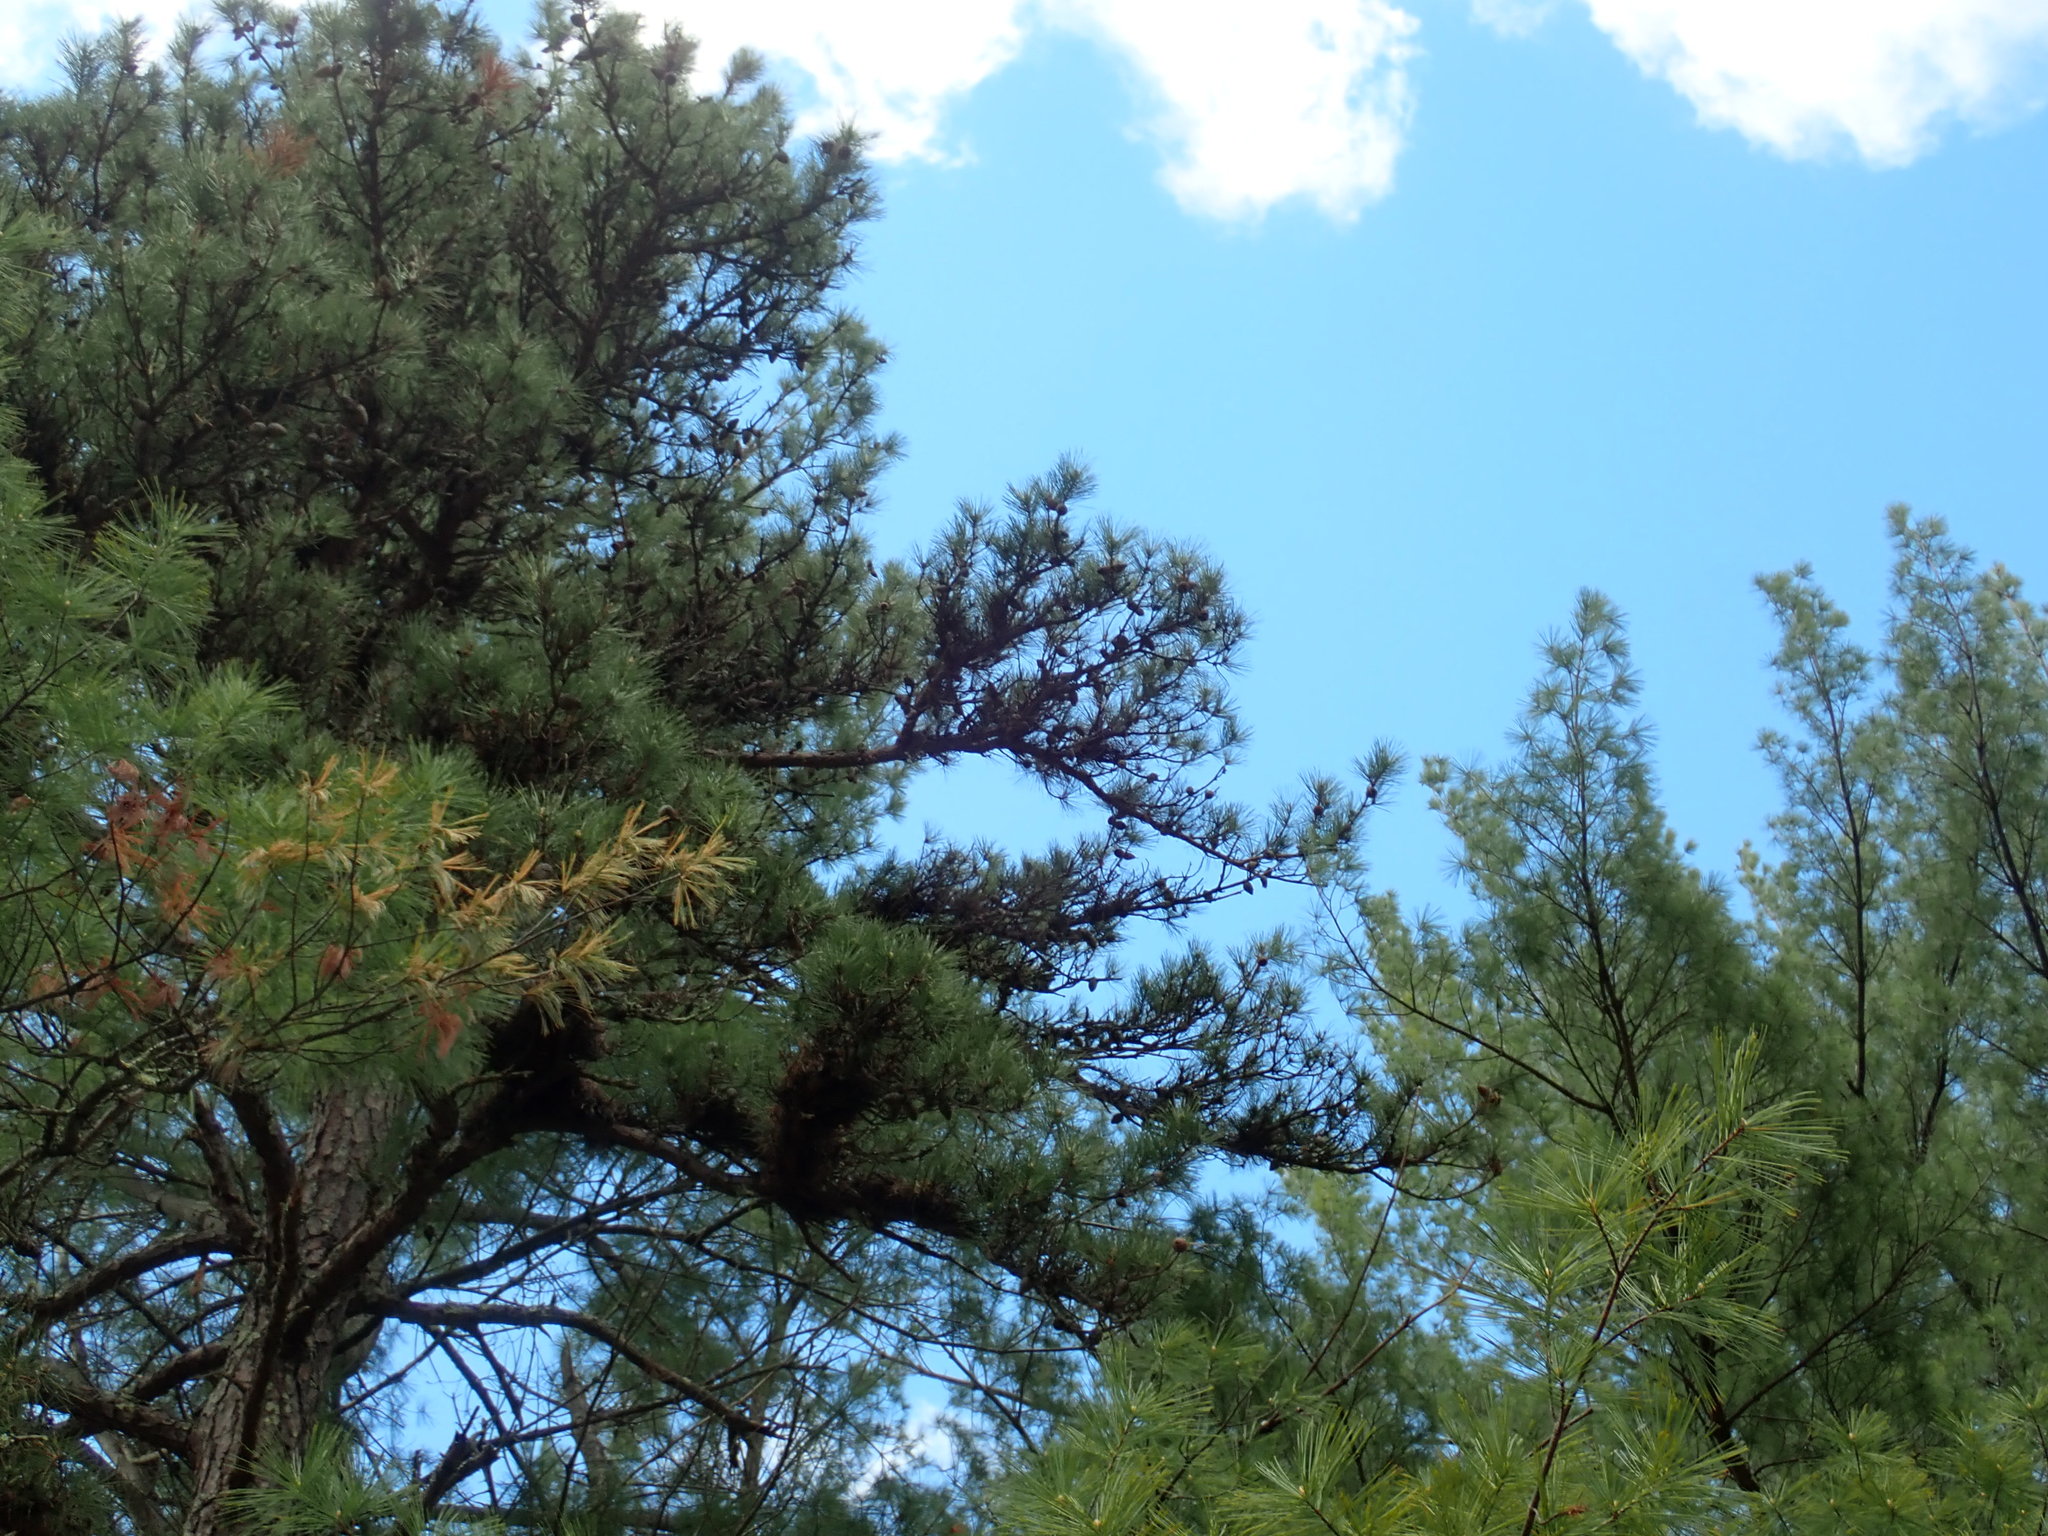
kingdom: Plantae
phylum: Tracheophyta
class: Pinopsida
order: Pinales
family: Pinaceae
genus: Pinus
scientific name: Pinus rigida
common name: Pitch pine
